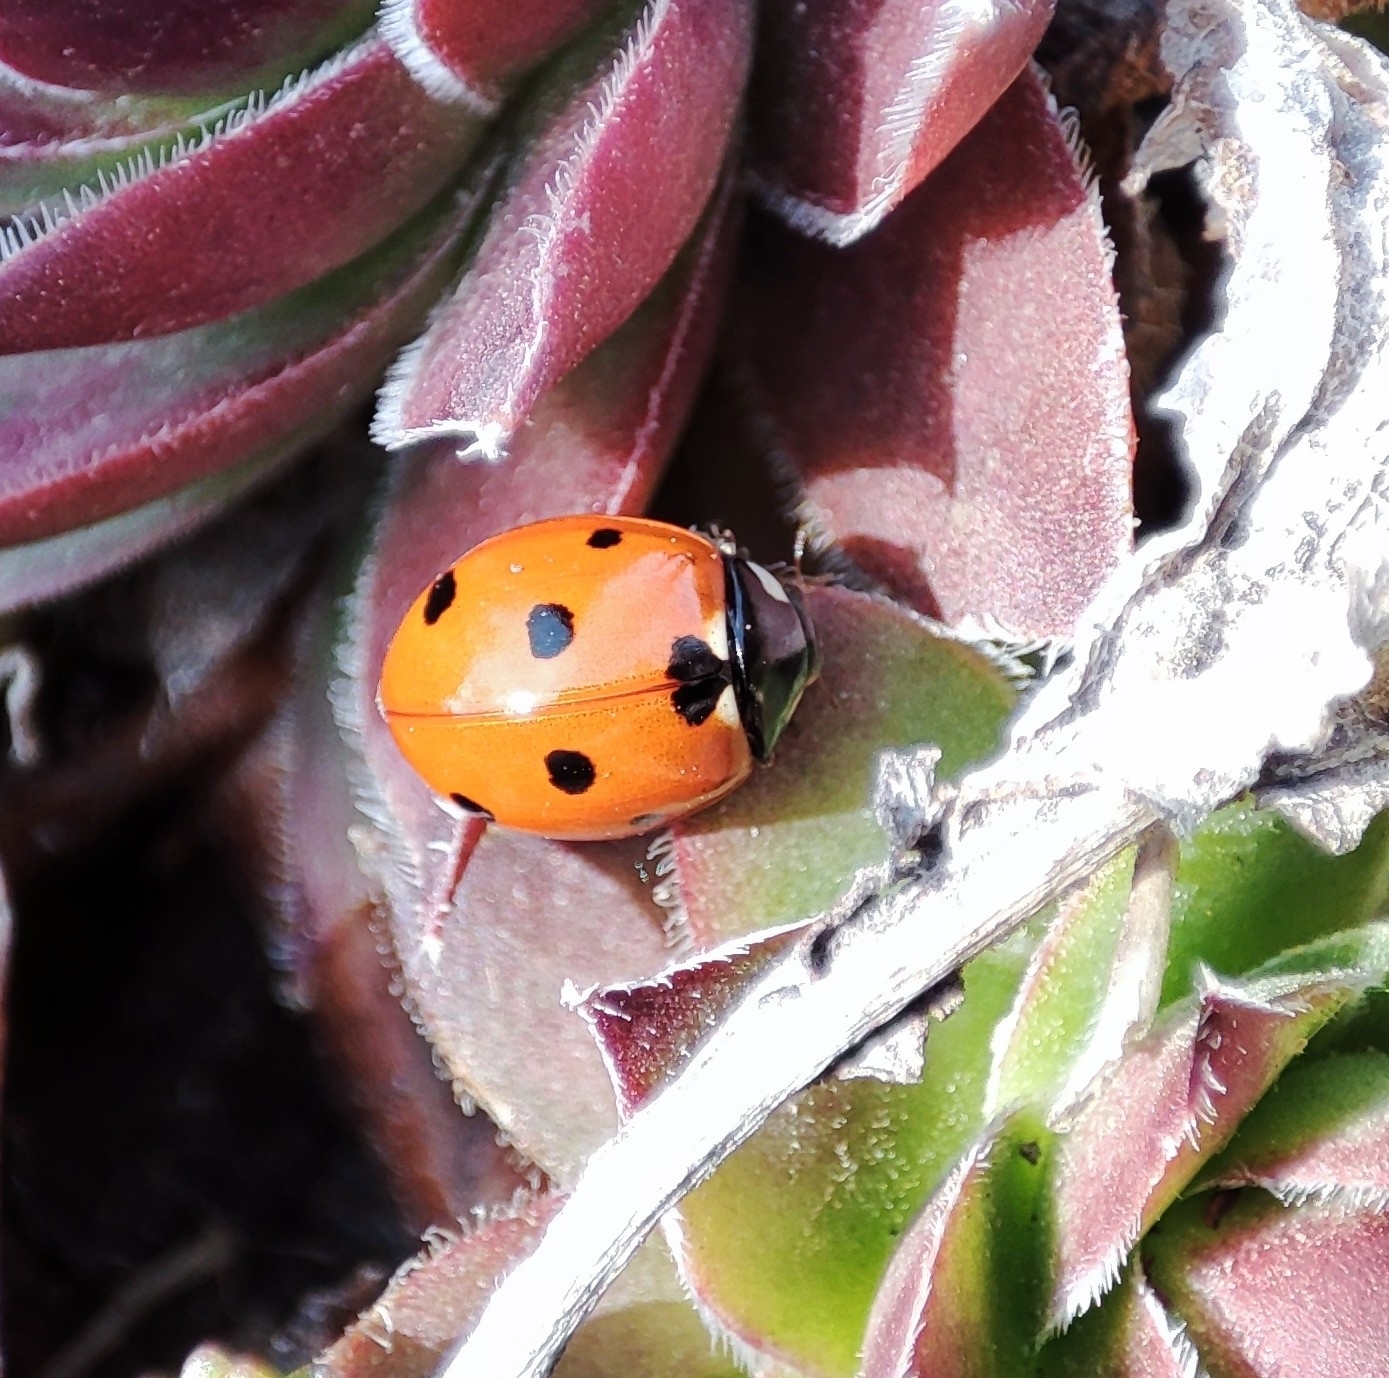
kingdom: Animalia
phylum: Arthropoda
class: Insecta
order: Coleoptera
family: Coccinellidae
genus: Coccinella
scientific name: Coccinella septempunctata
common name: Sevenspotted lady beetle
